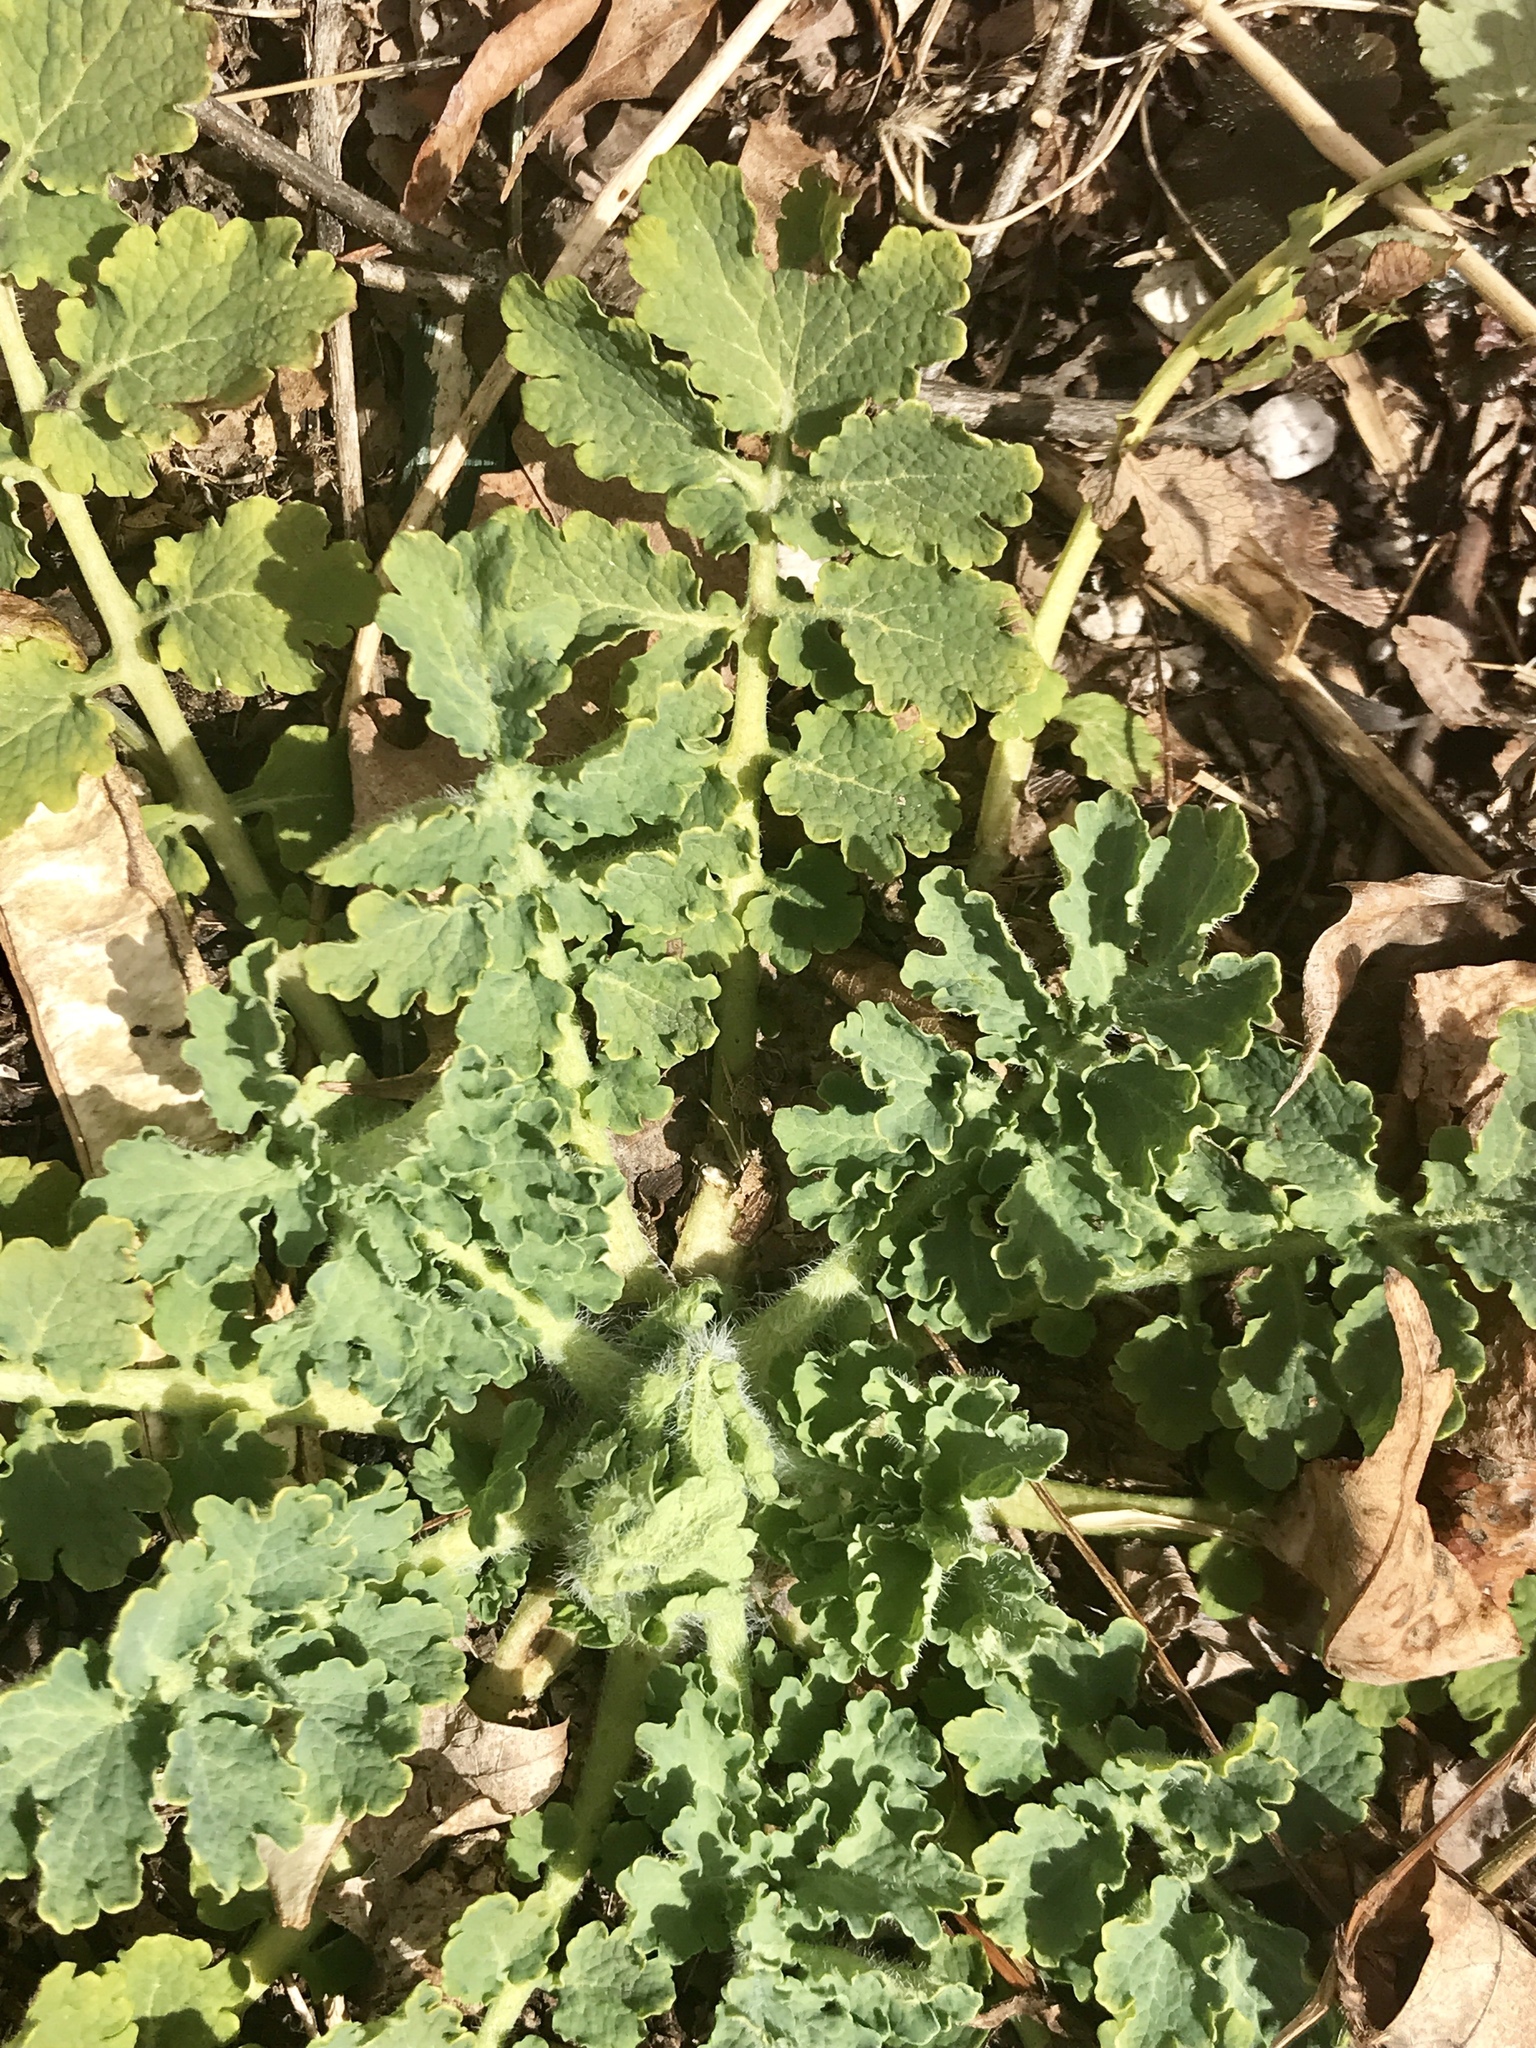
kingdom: Plantae
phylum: Tracheophyta
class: Magnoliopsida
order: Ranunculales
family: Papaveraceae
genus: Chelidonium
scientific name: Chelidonium majus
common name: Greater celandine
